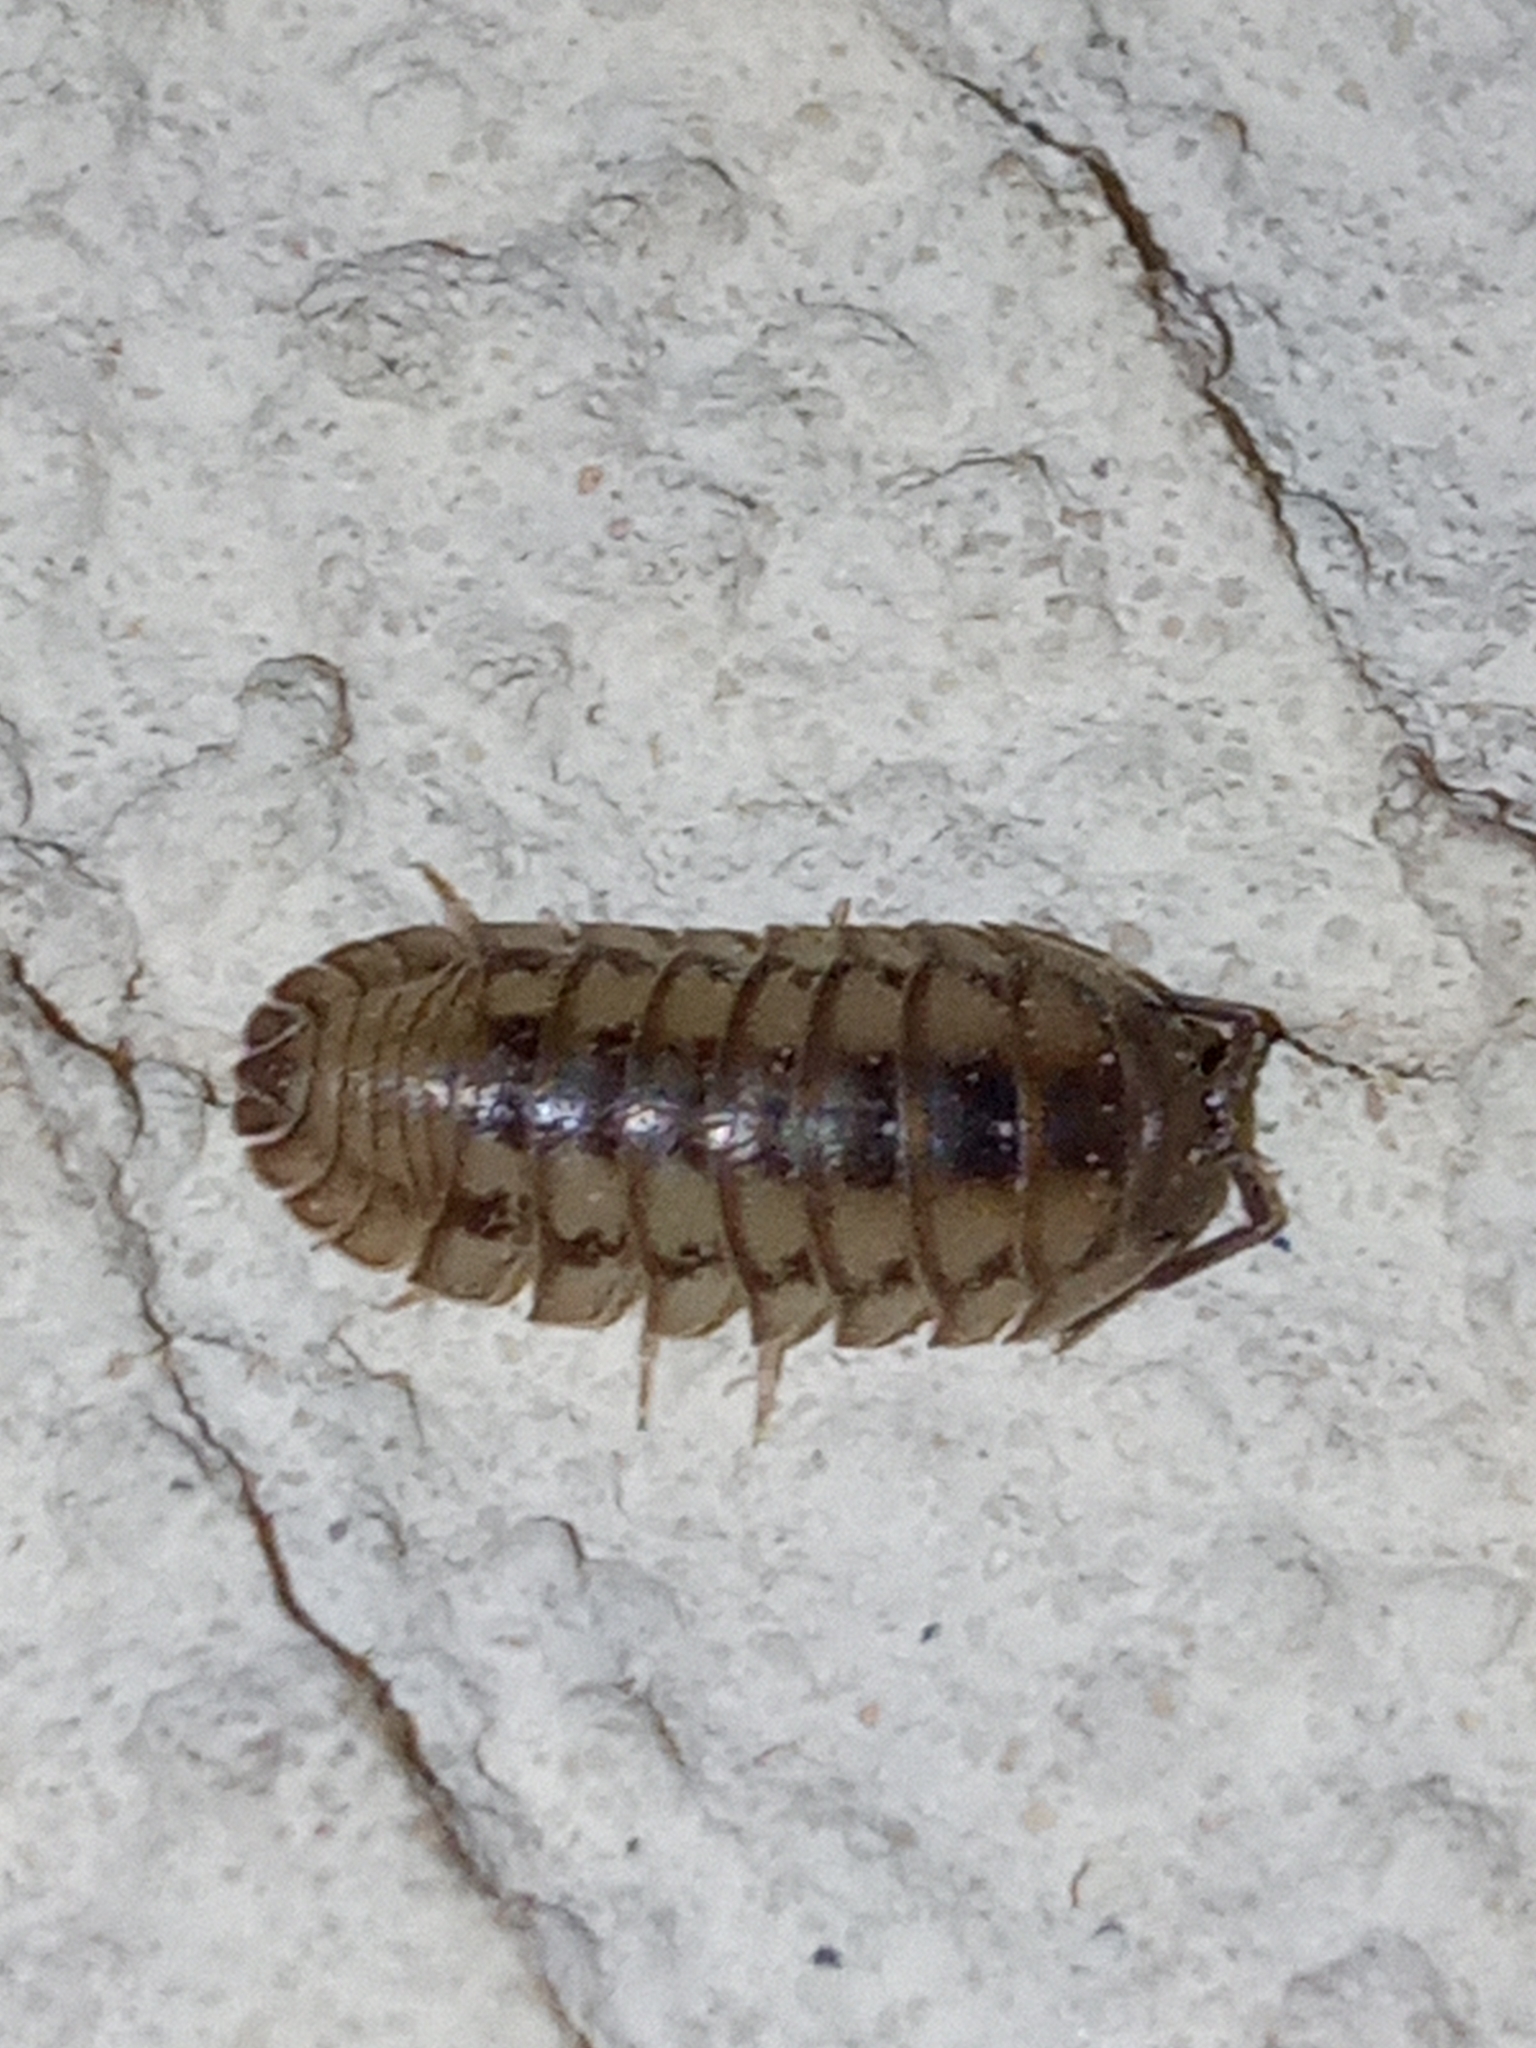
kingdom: Animalia
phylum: Arthropoda
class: Malacostraca
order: Isopoda
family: Armadillidiidae
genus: Armadillidium
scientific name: Armadillidium nasatum
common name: Isopod
